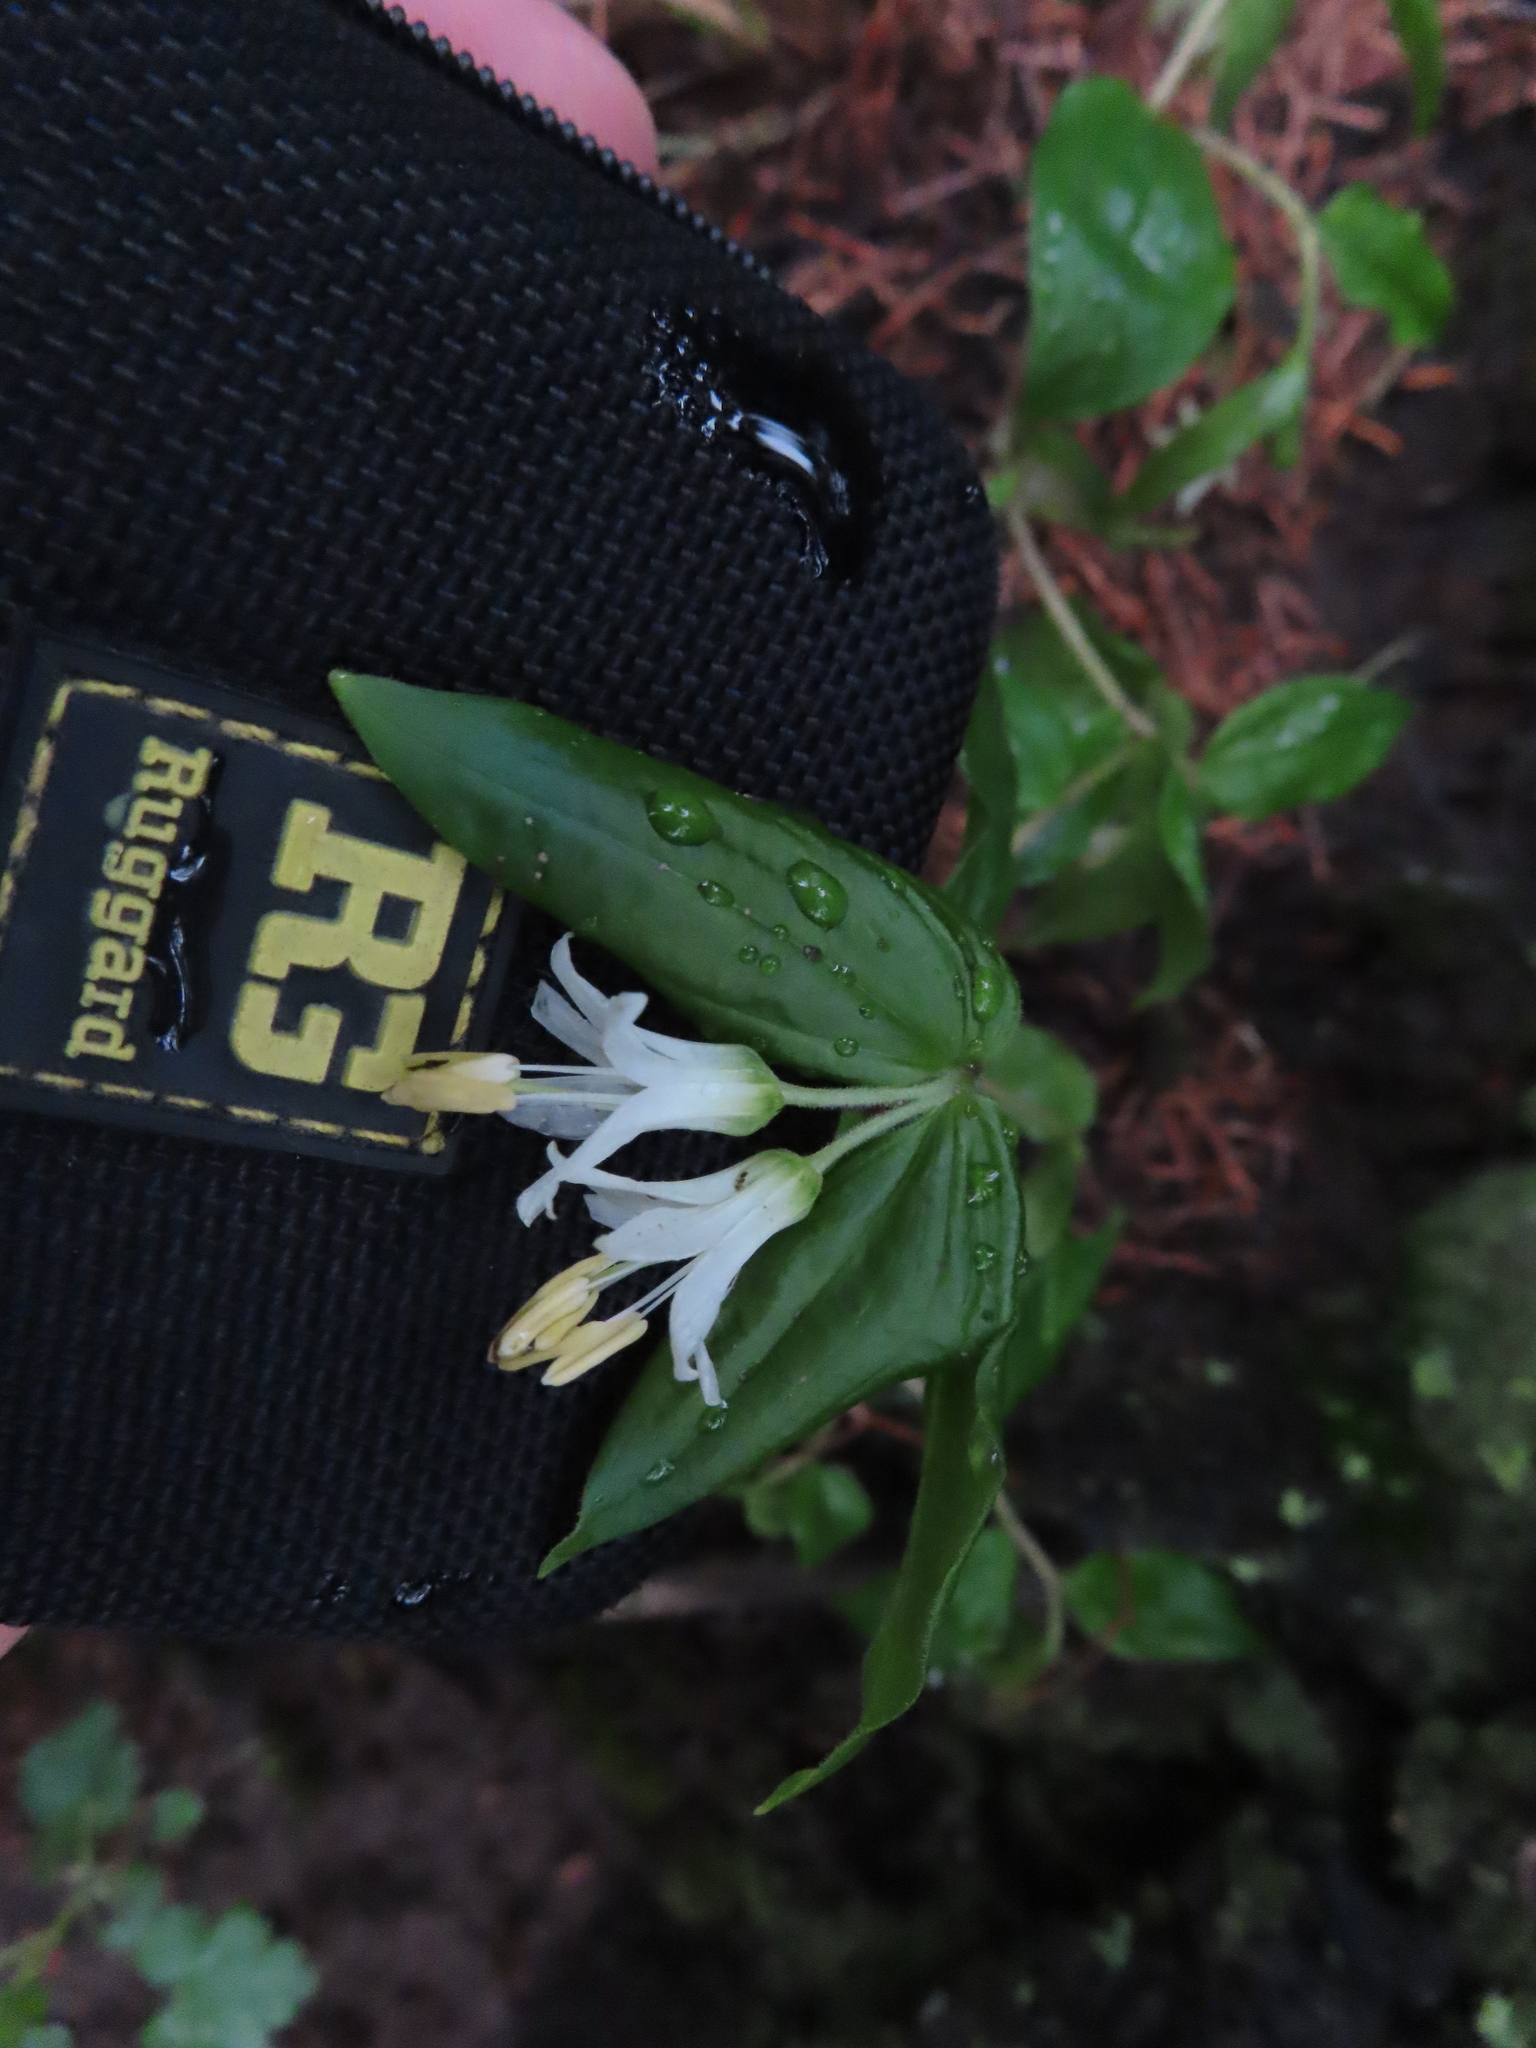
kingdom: Plantae
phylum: Tracheophyta
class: Liliopsida
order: Liliales
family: Liliaceae
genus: Prosartes
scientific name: Prosartes trachycarpa
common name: Rough-fruit fairy-bells
